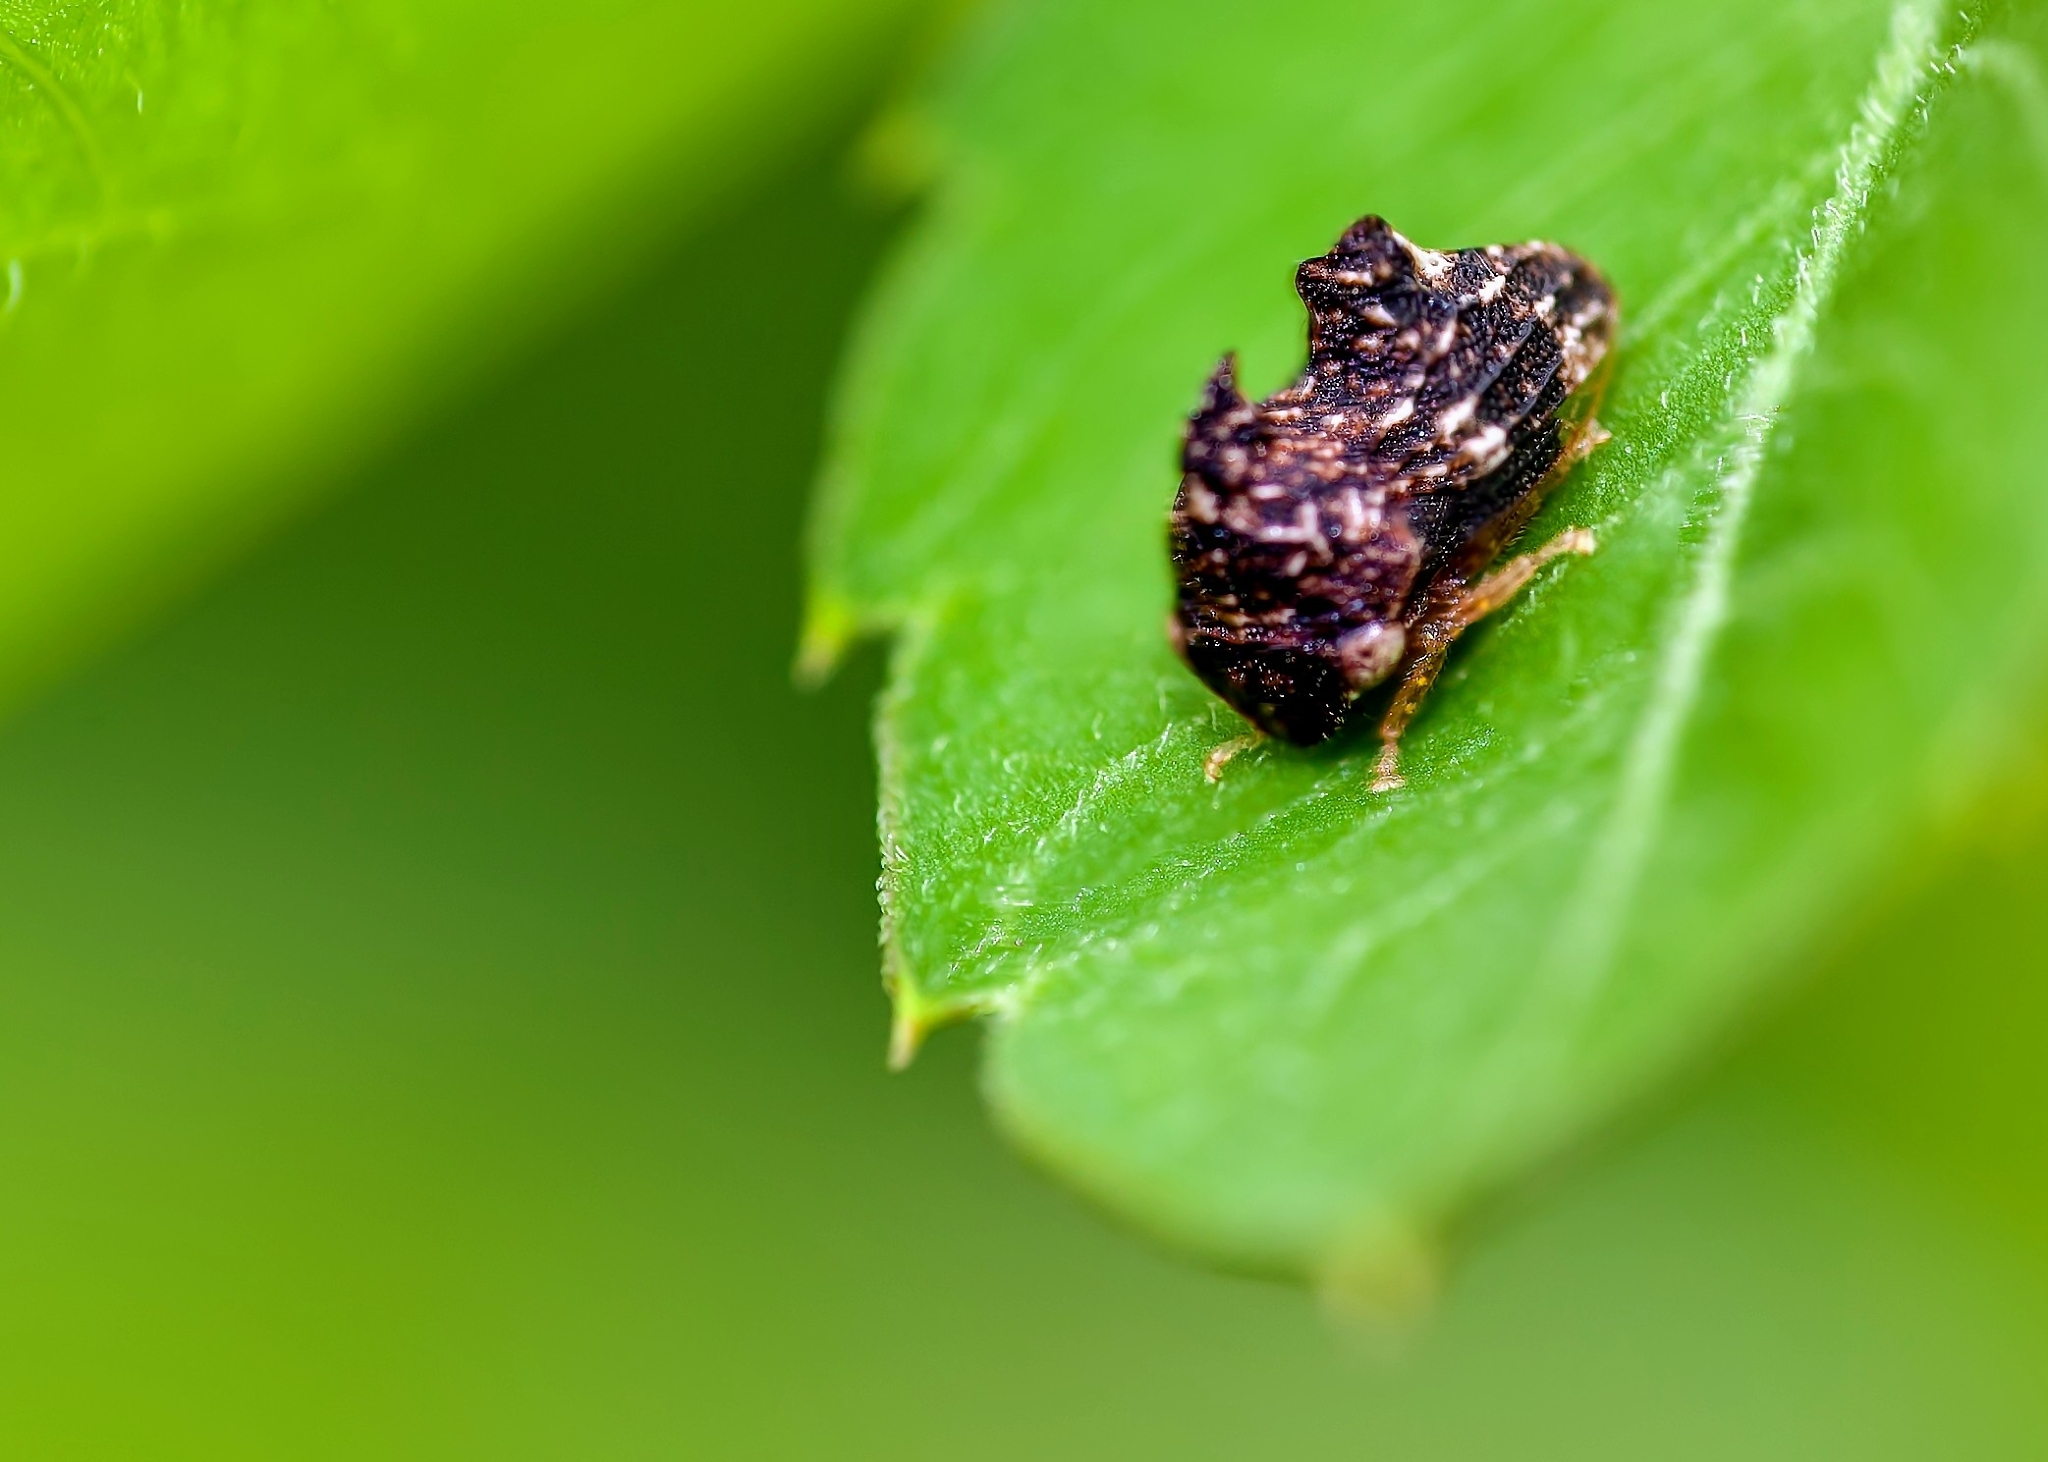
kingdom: Animalia
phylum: Arthropoda
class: Insecta
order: Hemiptera
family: Membracidae
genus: Entylia
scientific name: Entylia carinata
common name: Keeled treehopper
